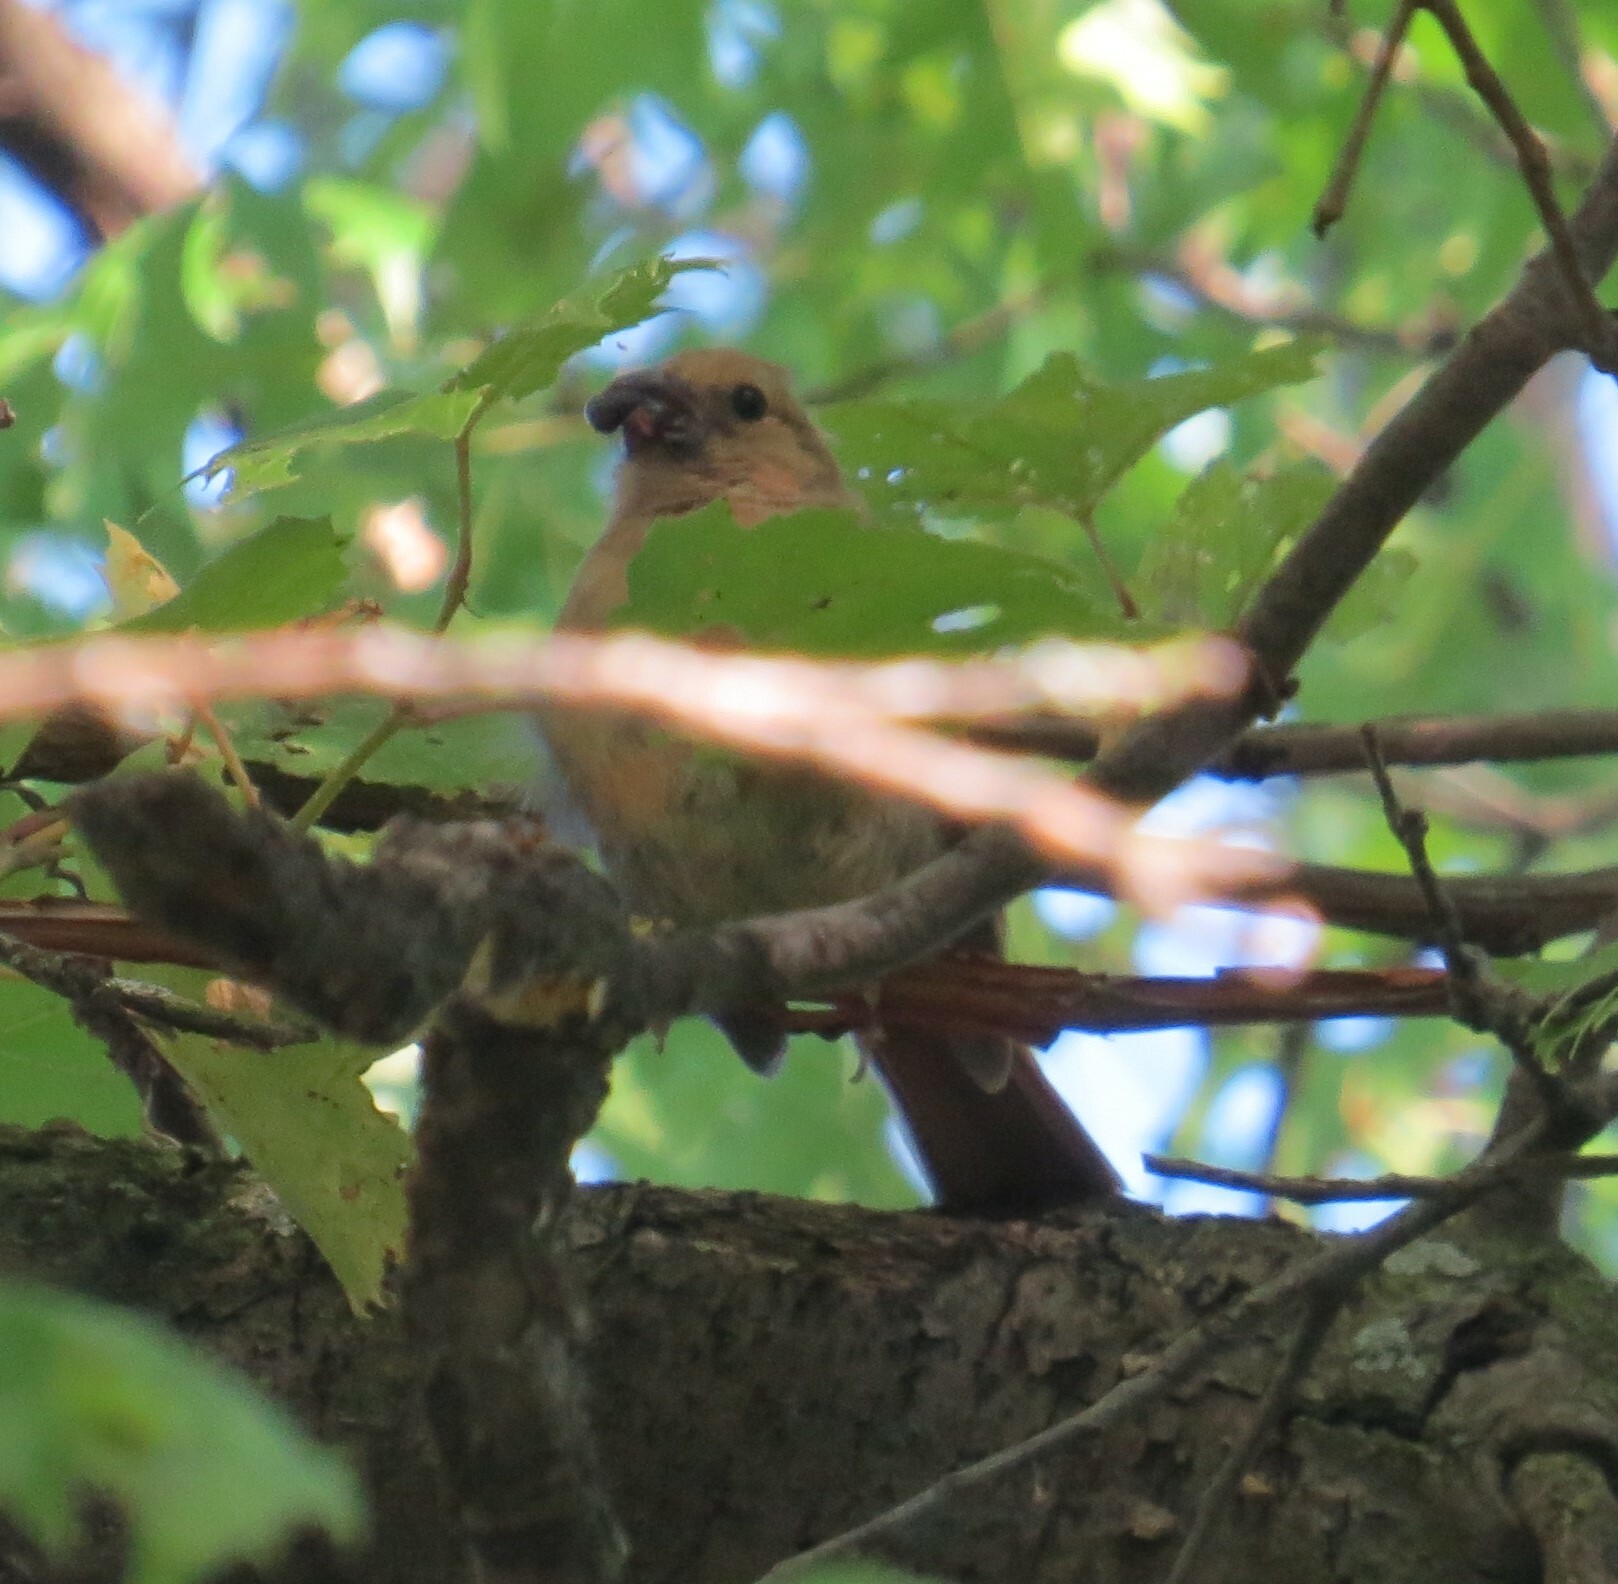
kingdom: Animalia
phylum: Chordata
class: Aves
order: Passeriformes
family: Cardinalidae
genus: Cardinalis
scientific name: Cardinalis cardinalis
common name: Northern cardinal
